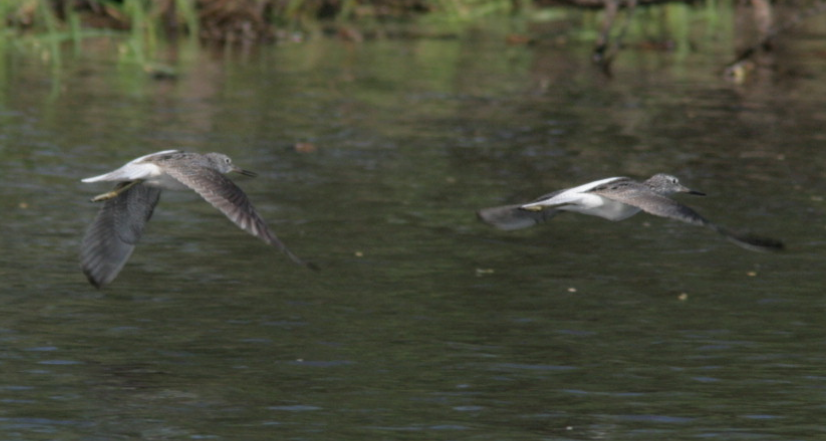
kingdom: Animalia
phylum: Chordata
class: Aves
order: Charadriiformes
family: Scolopacidae
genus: Tringa
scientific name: Tringa nebularia
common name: Common greenshank
